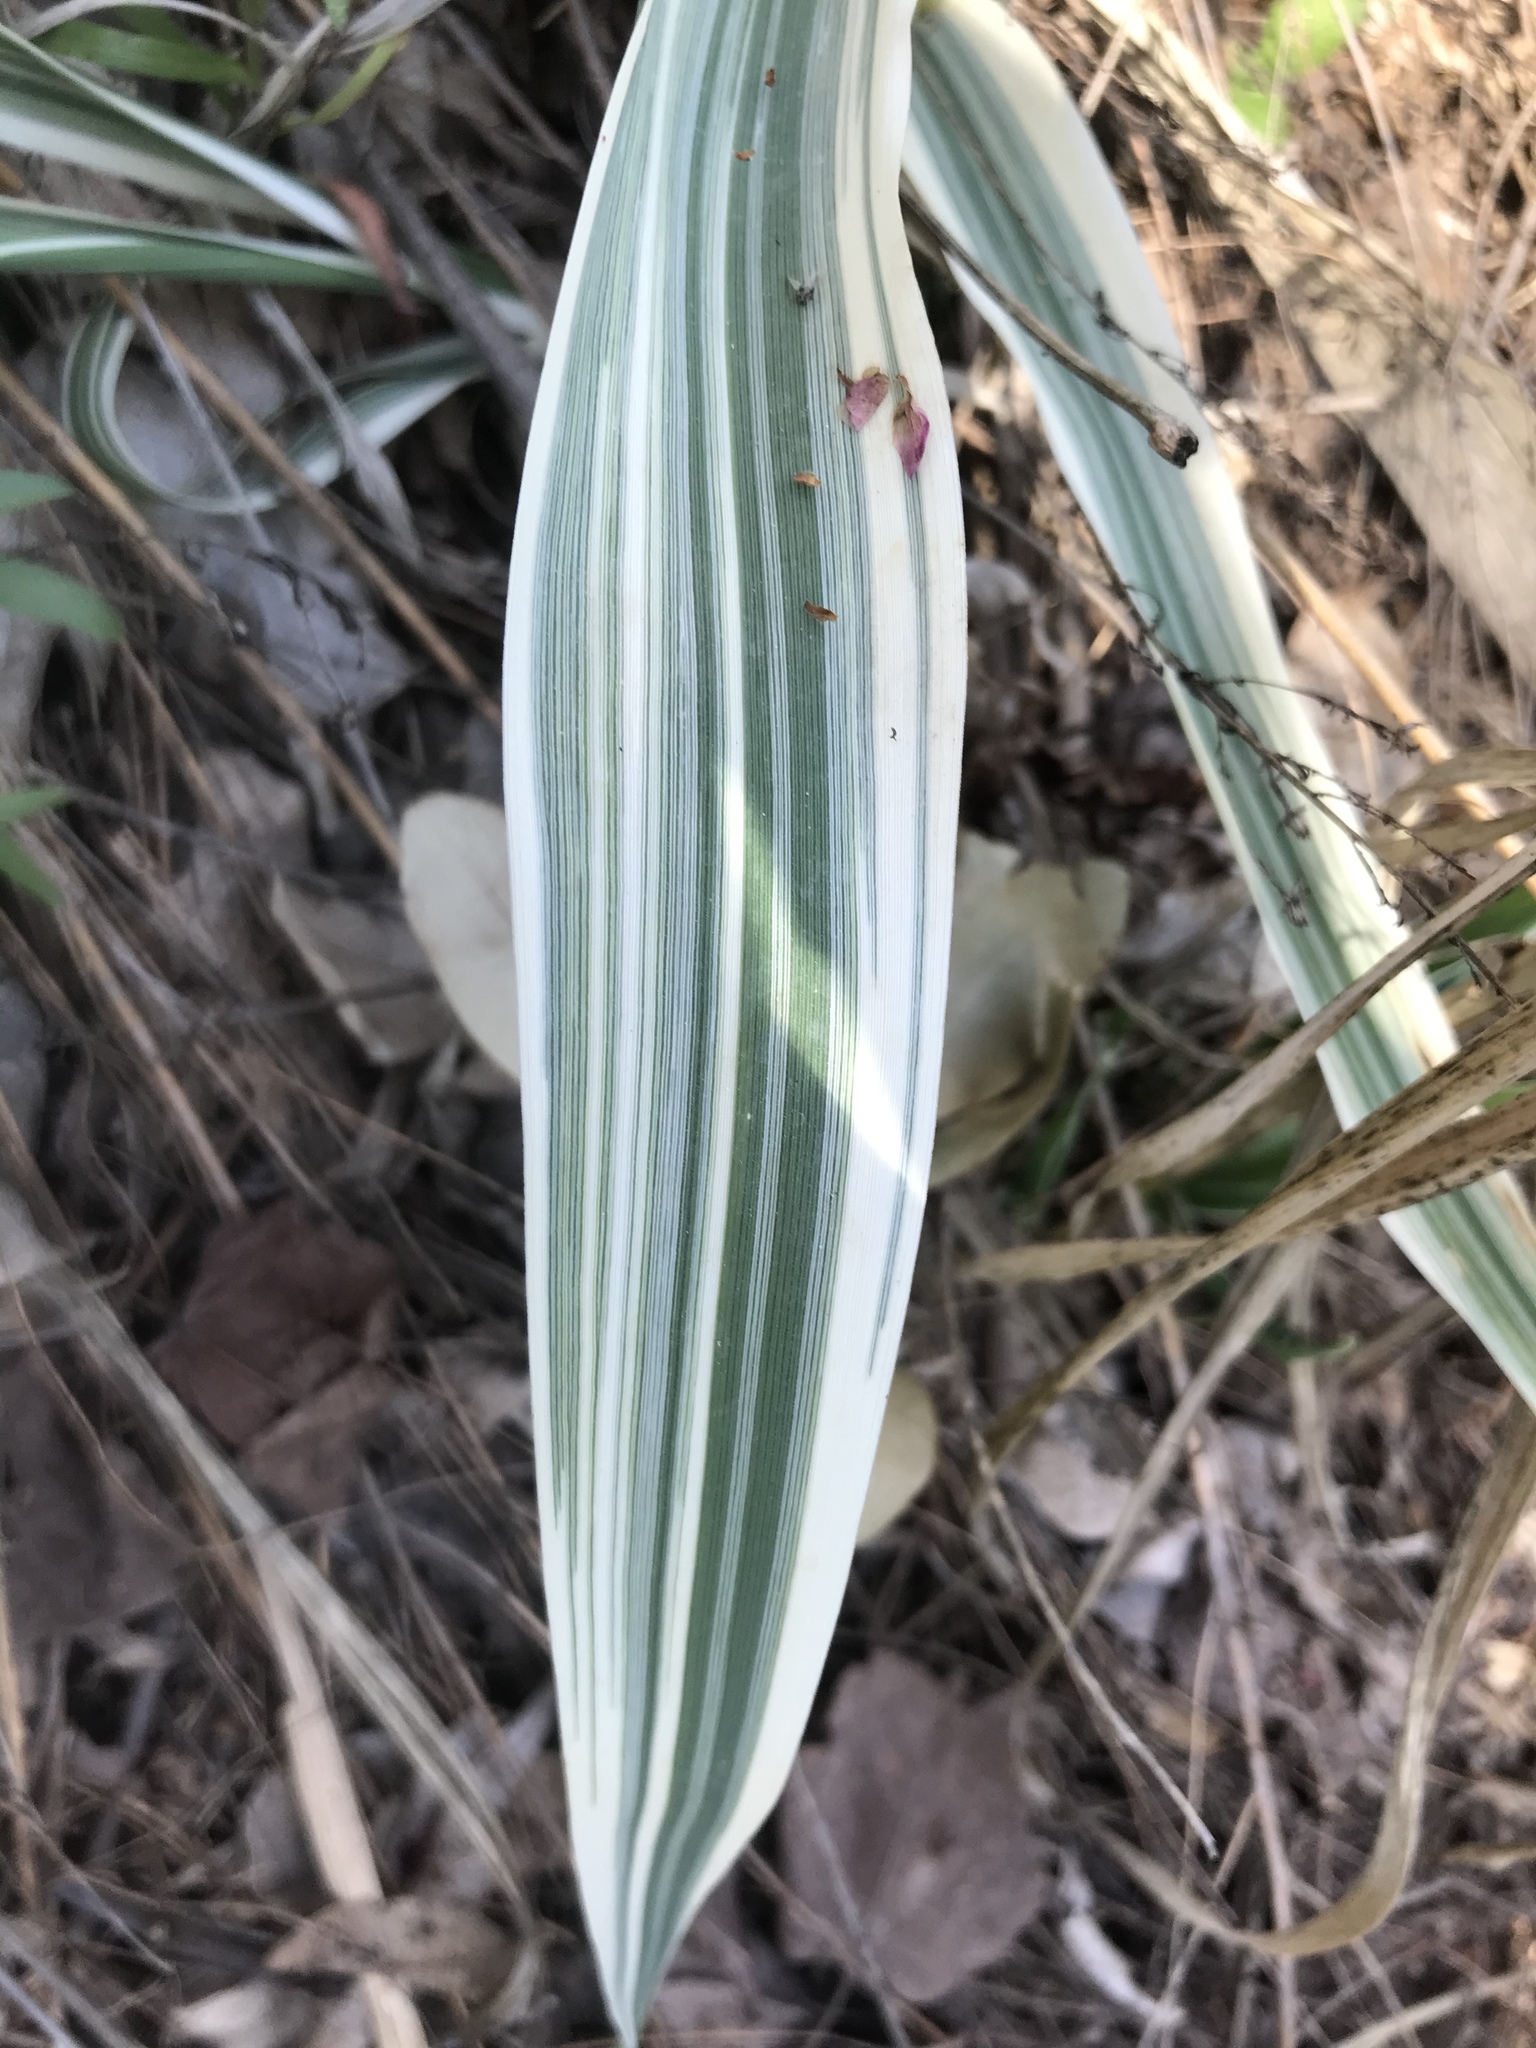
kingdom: Plantae
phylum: Tracheophyta
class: Liliopsida
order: Poales
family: Poaceae
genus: Arundo
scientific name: Arundo donax
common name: Giant reed
